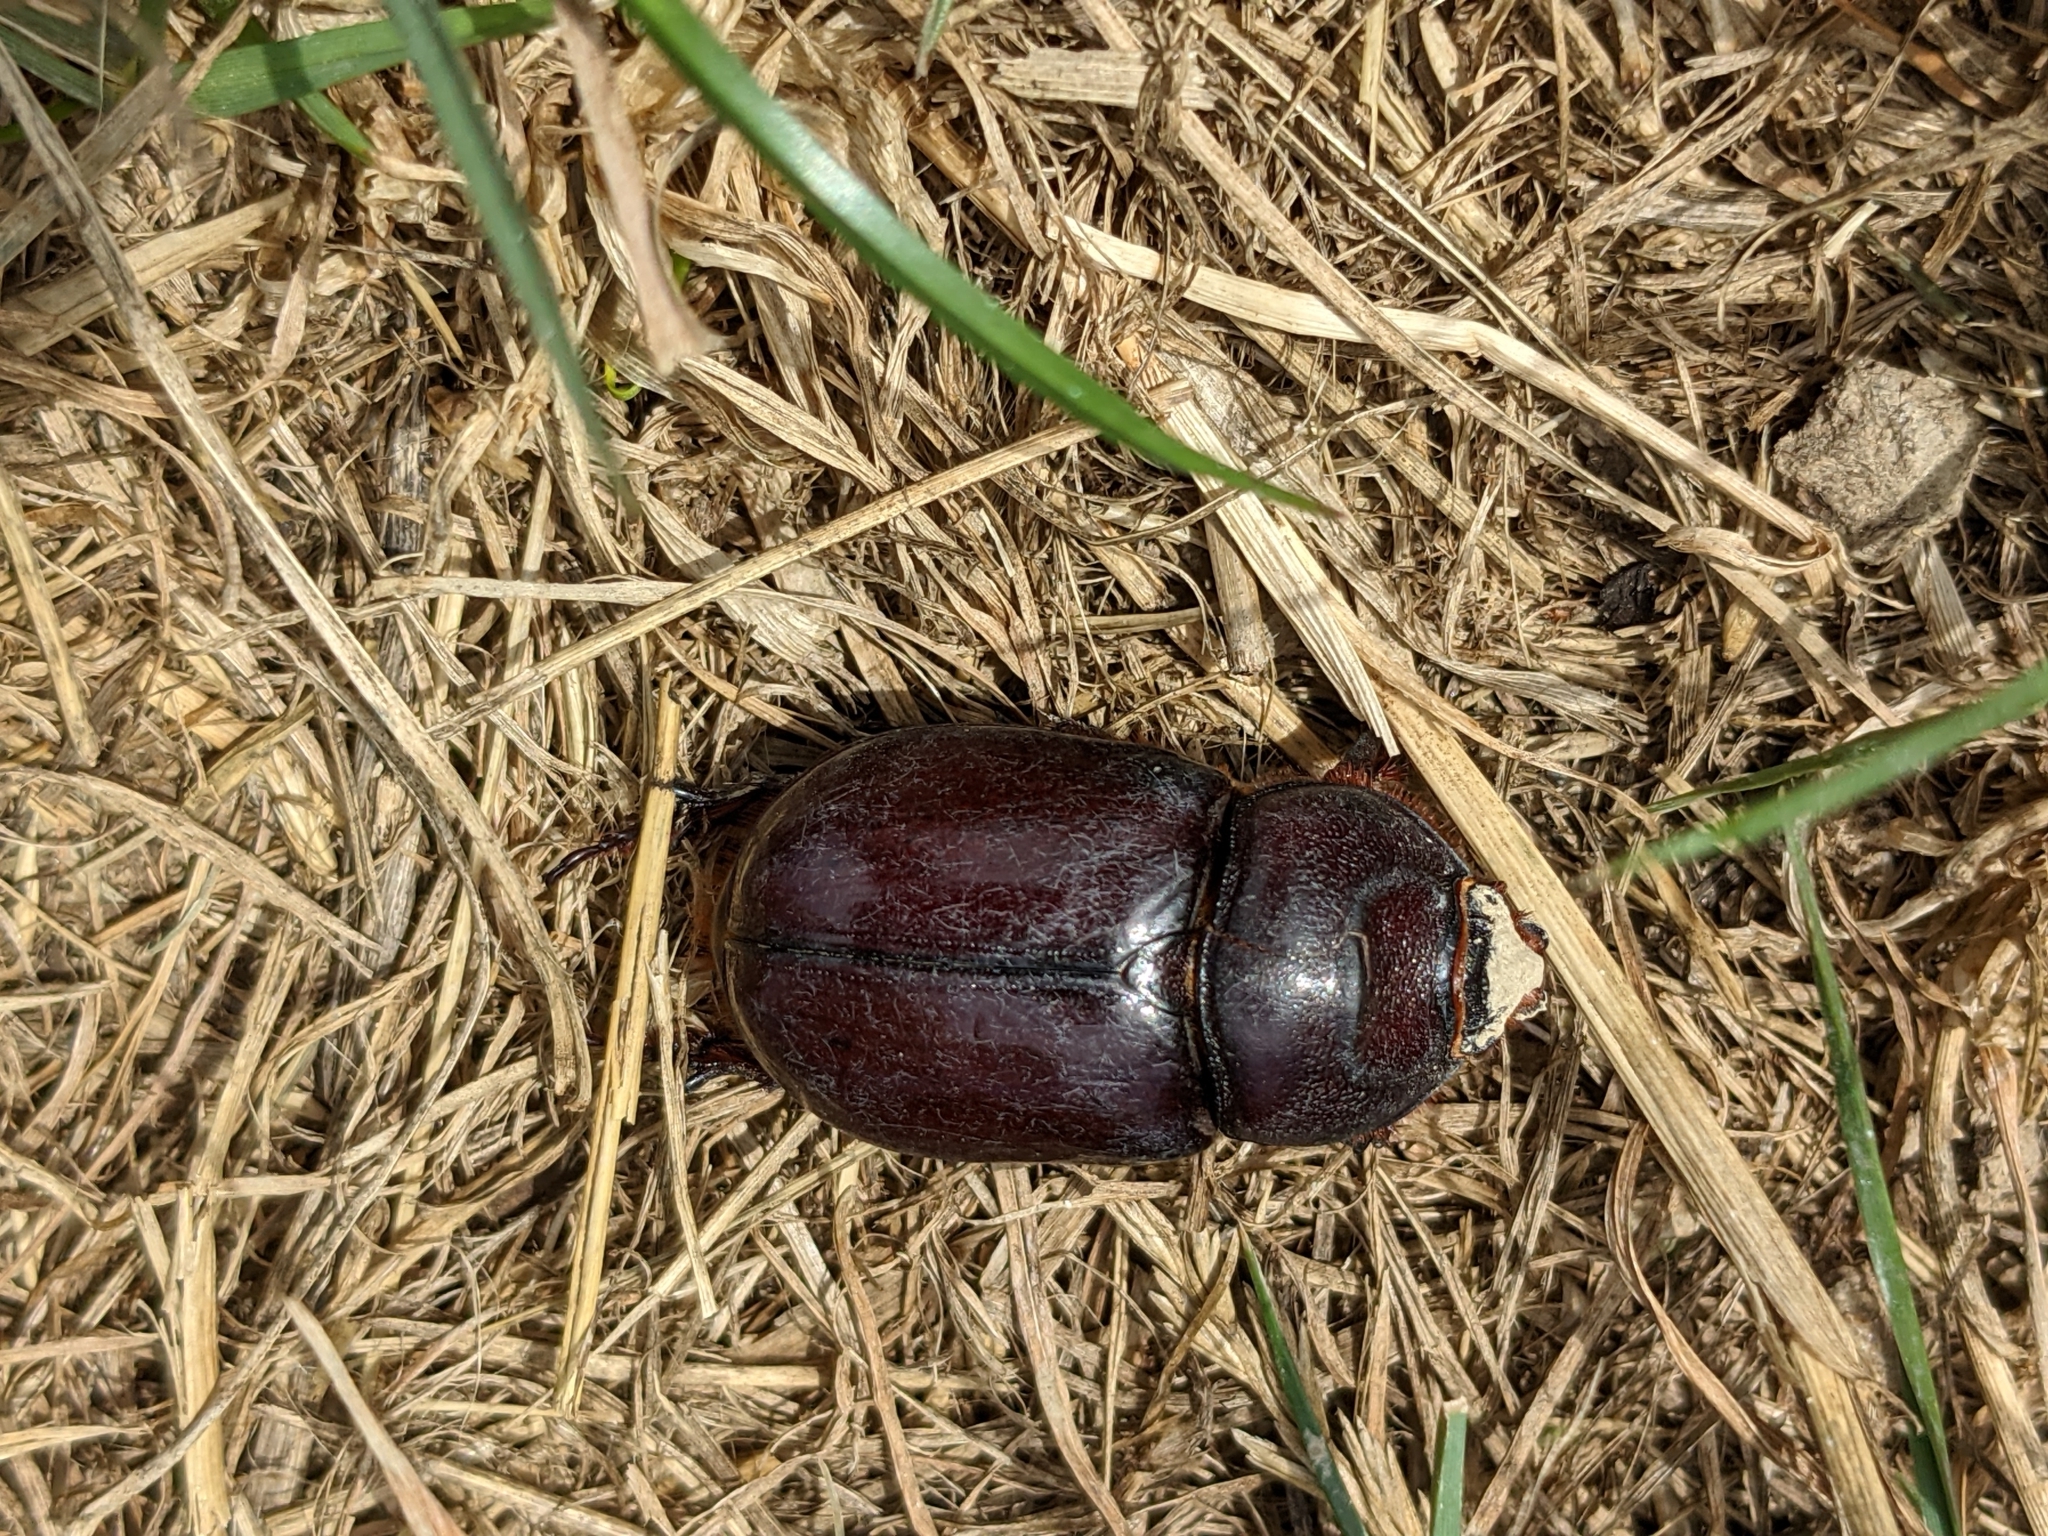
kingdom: Animalia
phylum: Arthropoda
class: Insecta
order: Coleoptera
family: Scarabaeidae
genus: Oryctes
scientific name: Oryctes nasicornis
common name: European rhinoceros beetle
